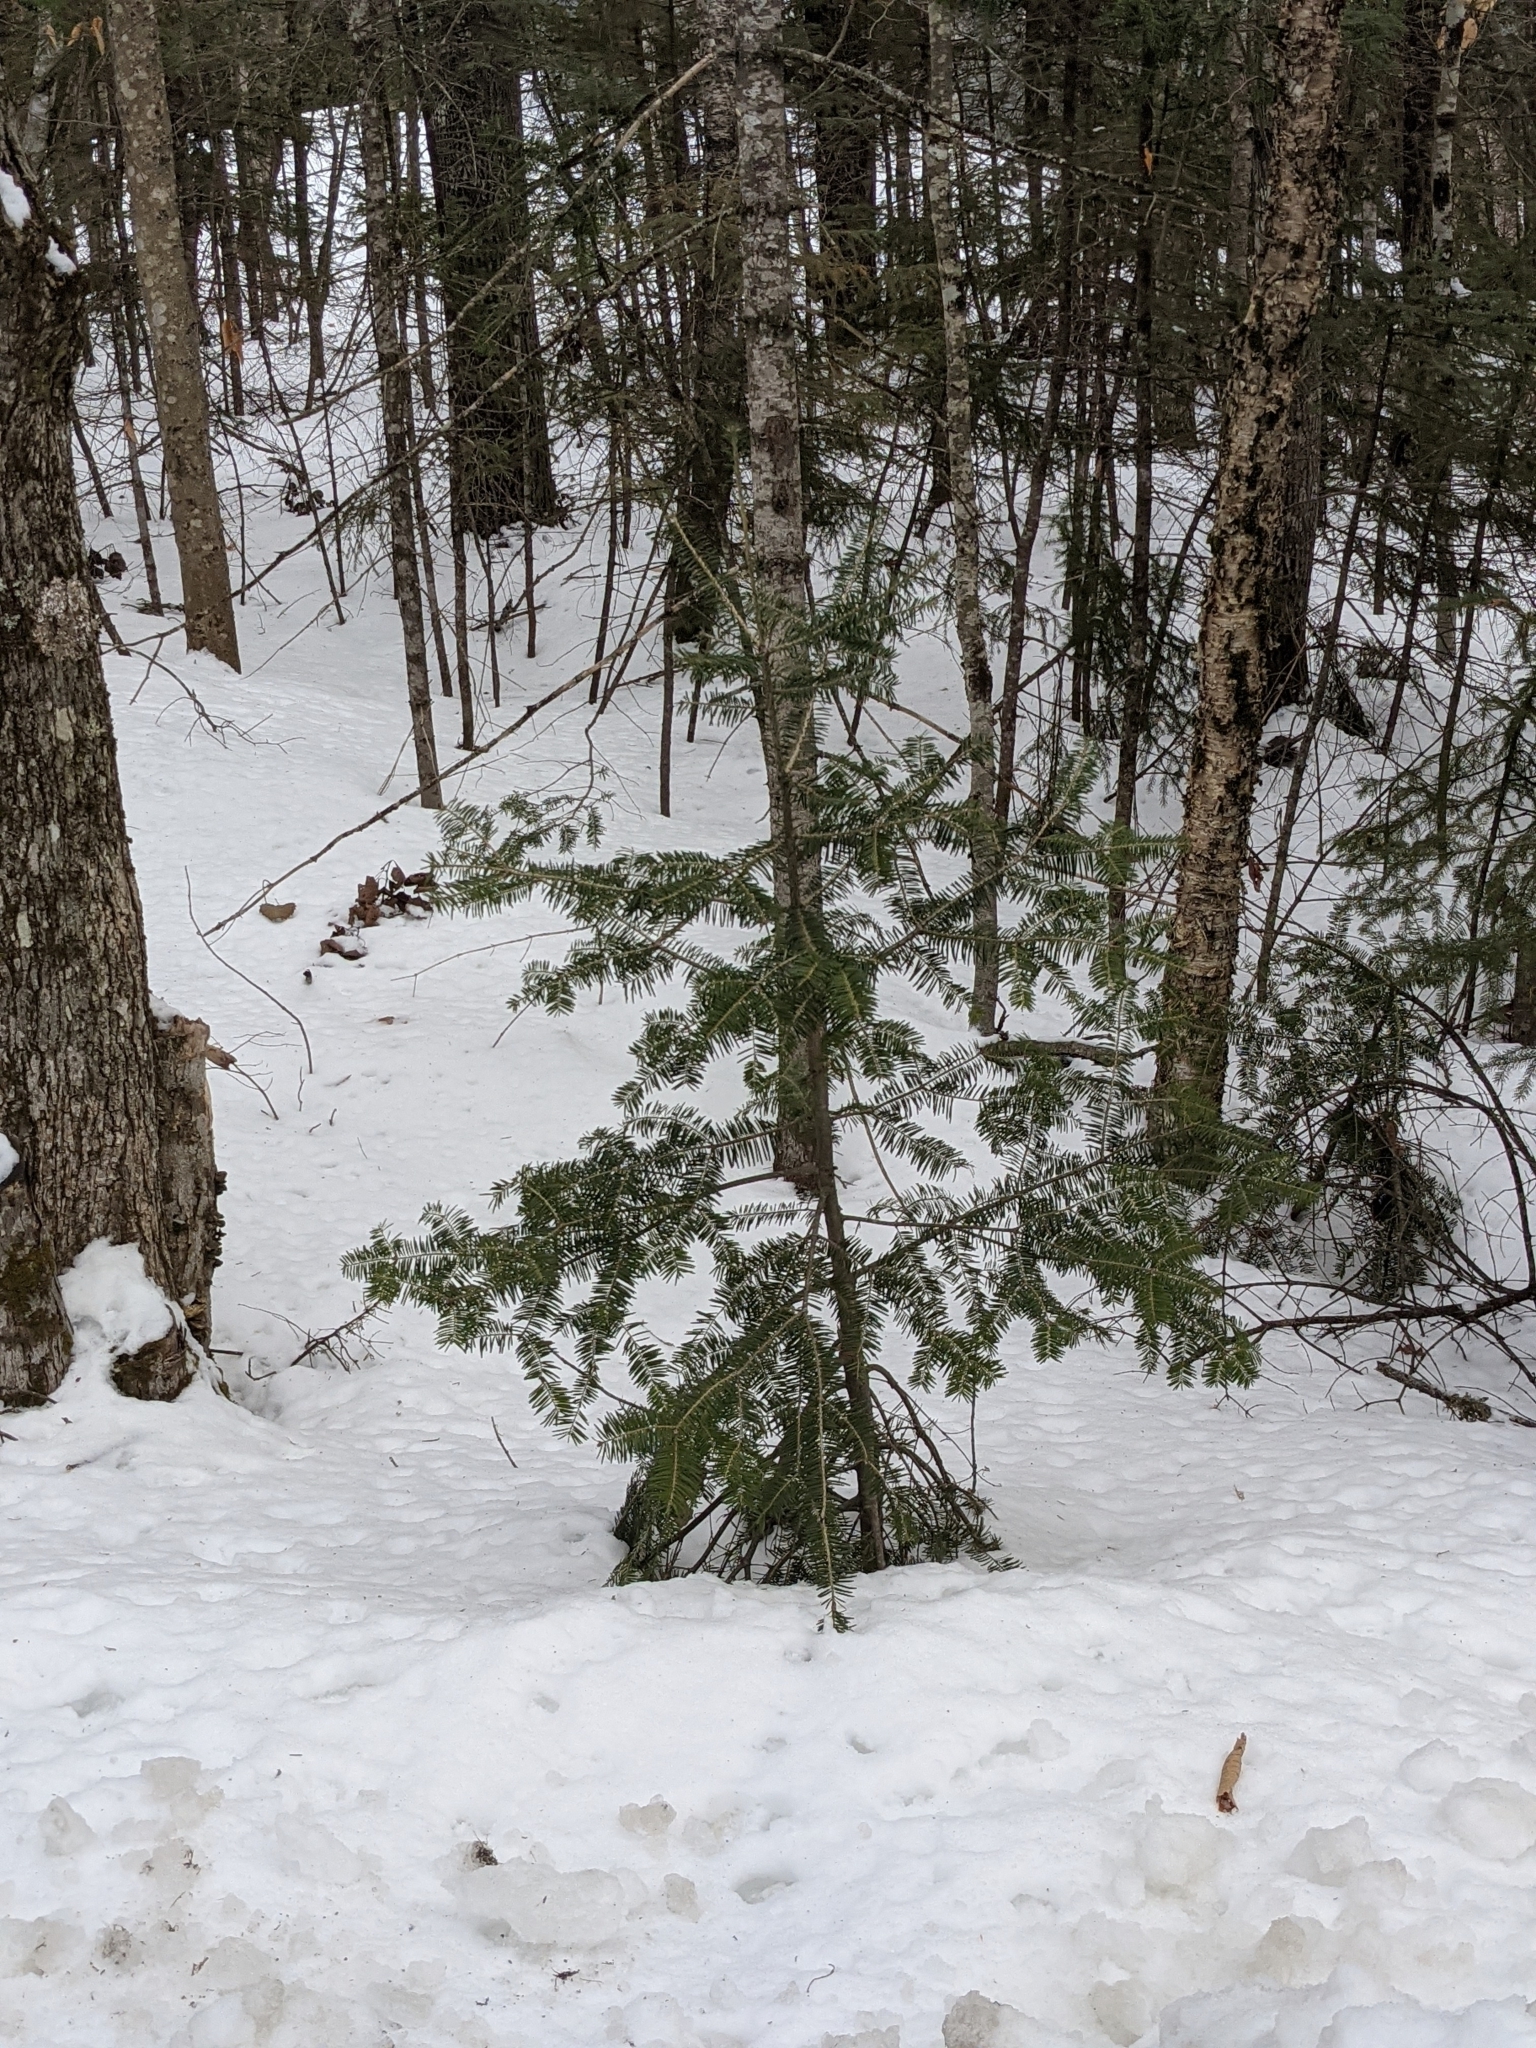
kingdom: Plantae
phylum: Tracheophyta
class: Pinopsida
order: Pinales
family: Pinaceae
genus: Abies
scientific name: Abies balsamea
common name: Balsam fir
